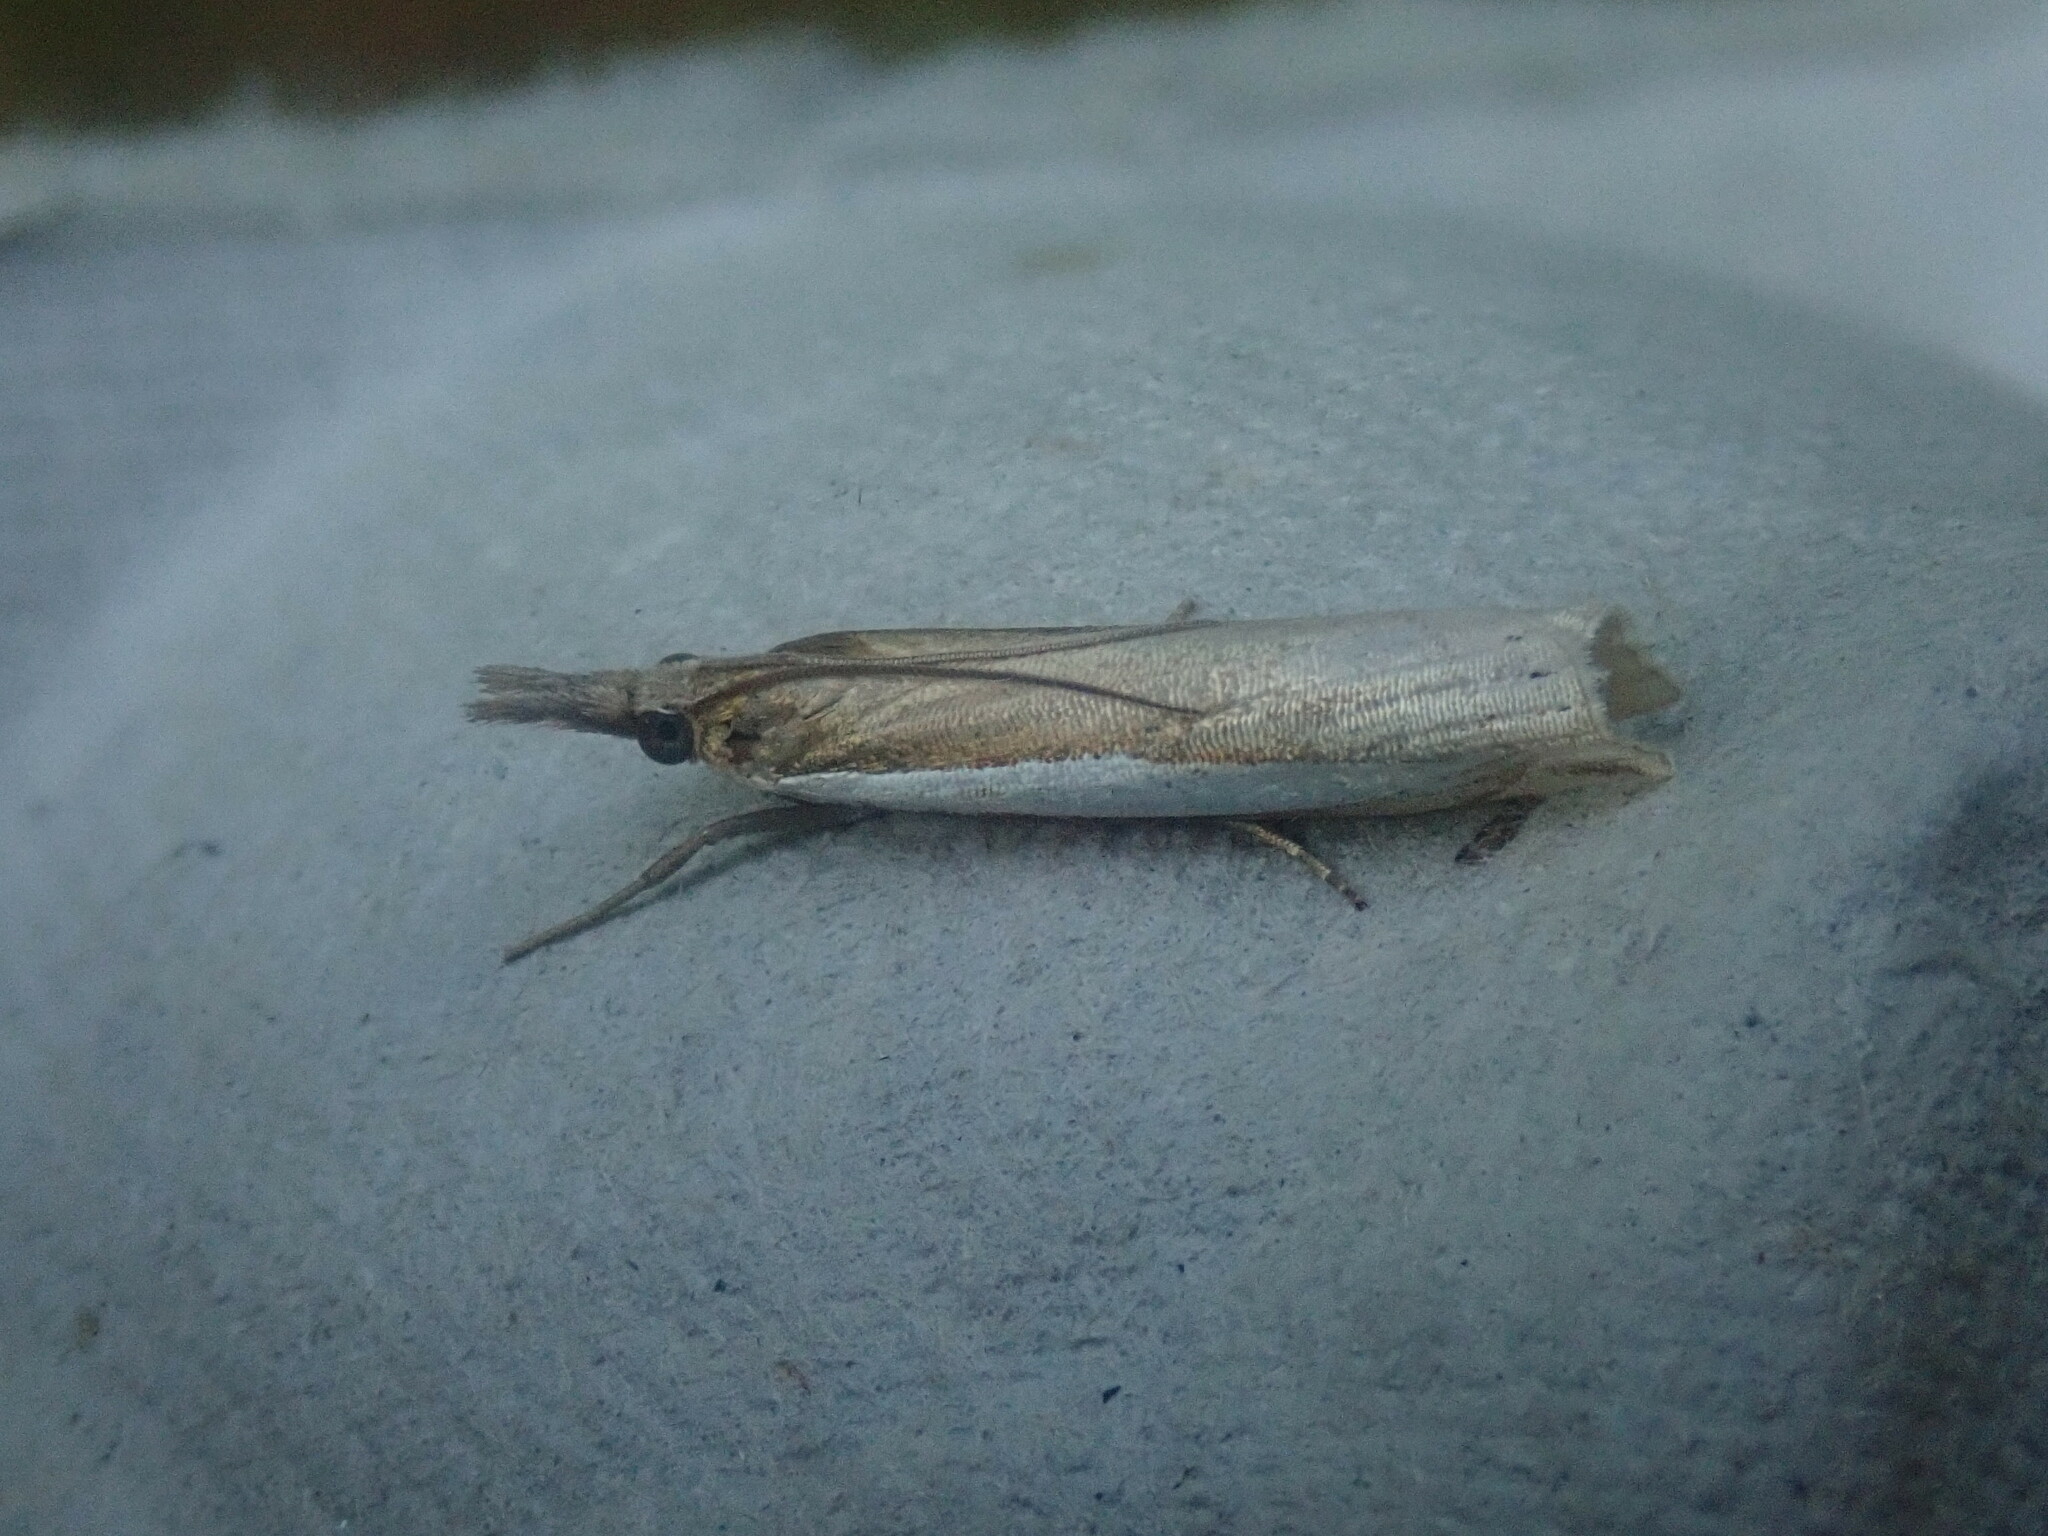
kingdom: Animalia
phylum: Arthropoda
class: Insecta
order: Lepidoptera
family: Crambidae
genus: Crambus
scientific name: Crambus
